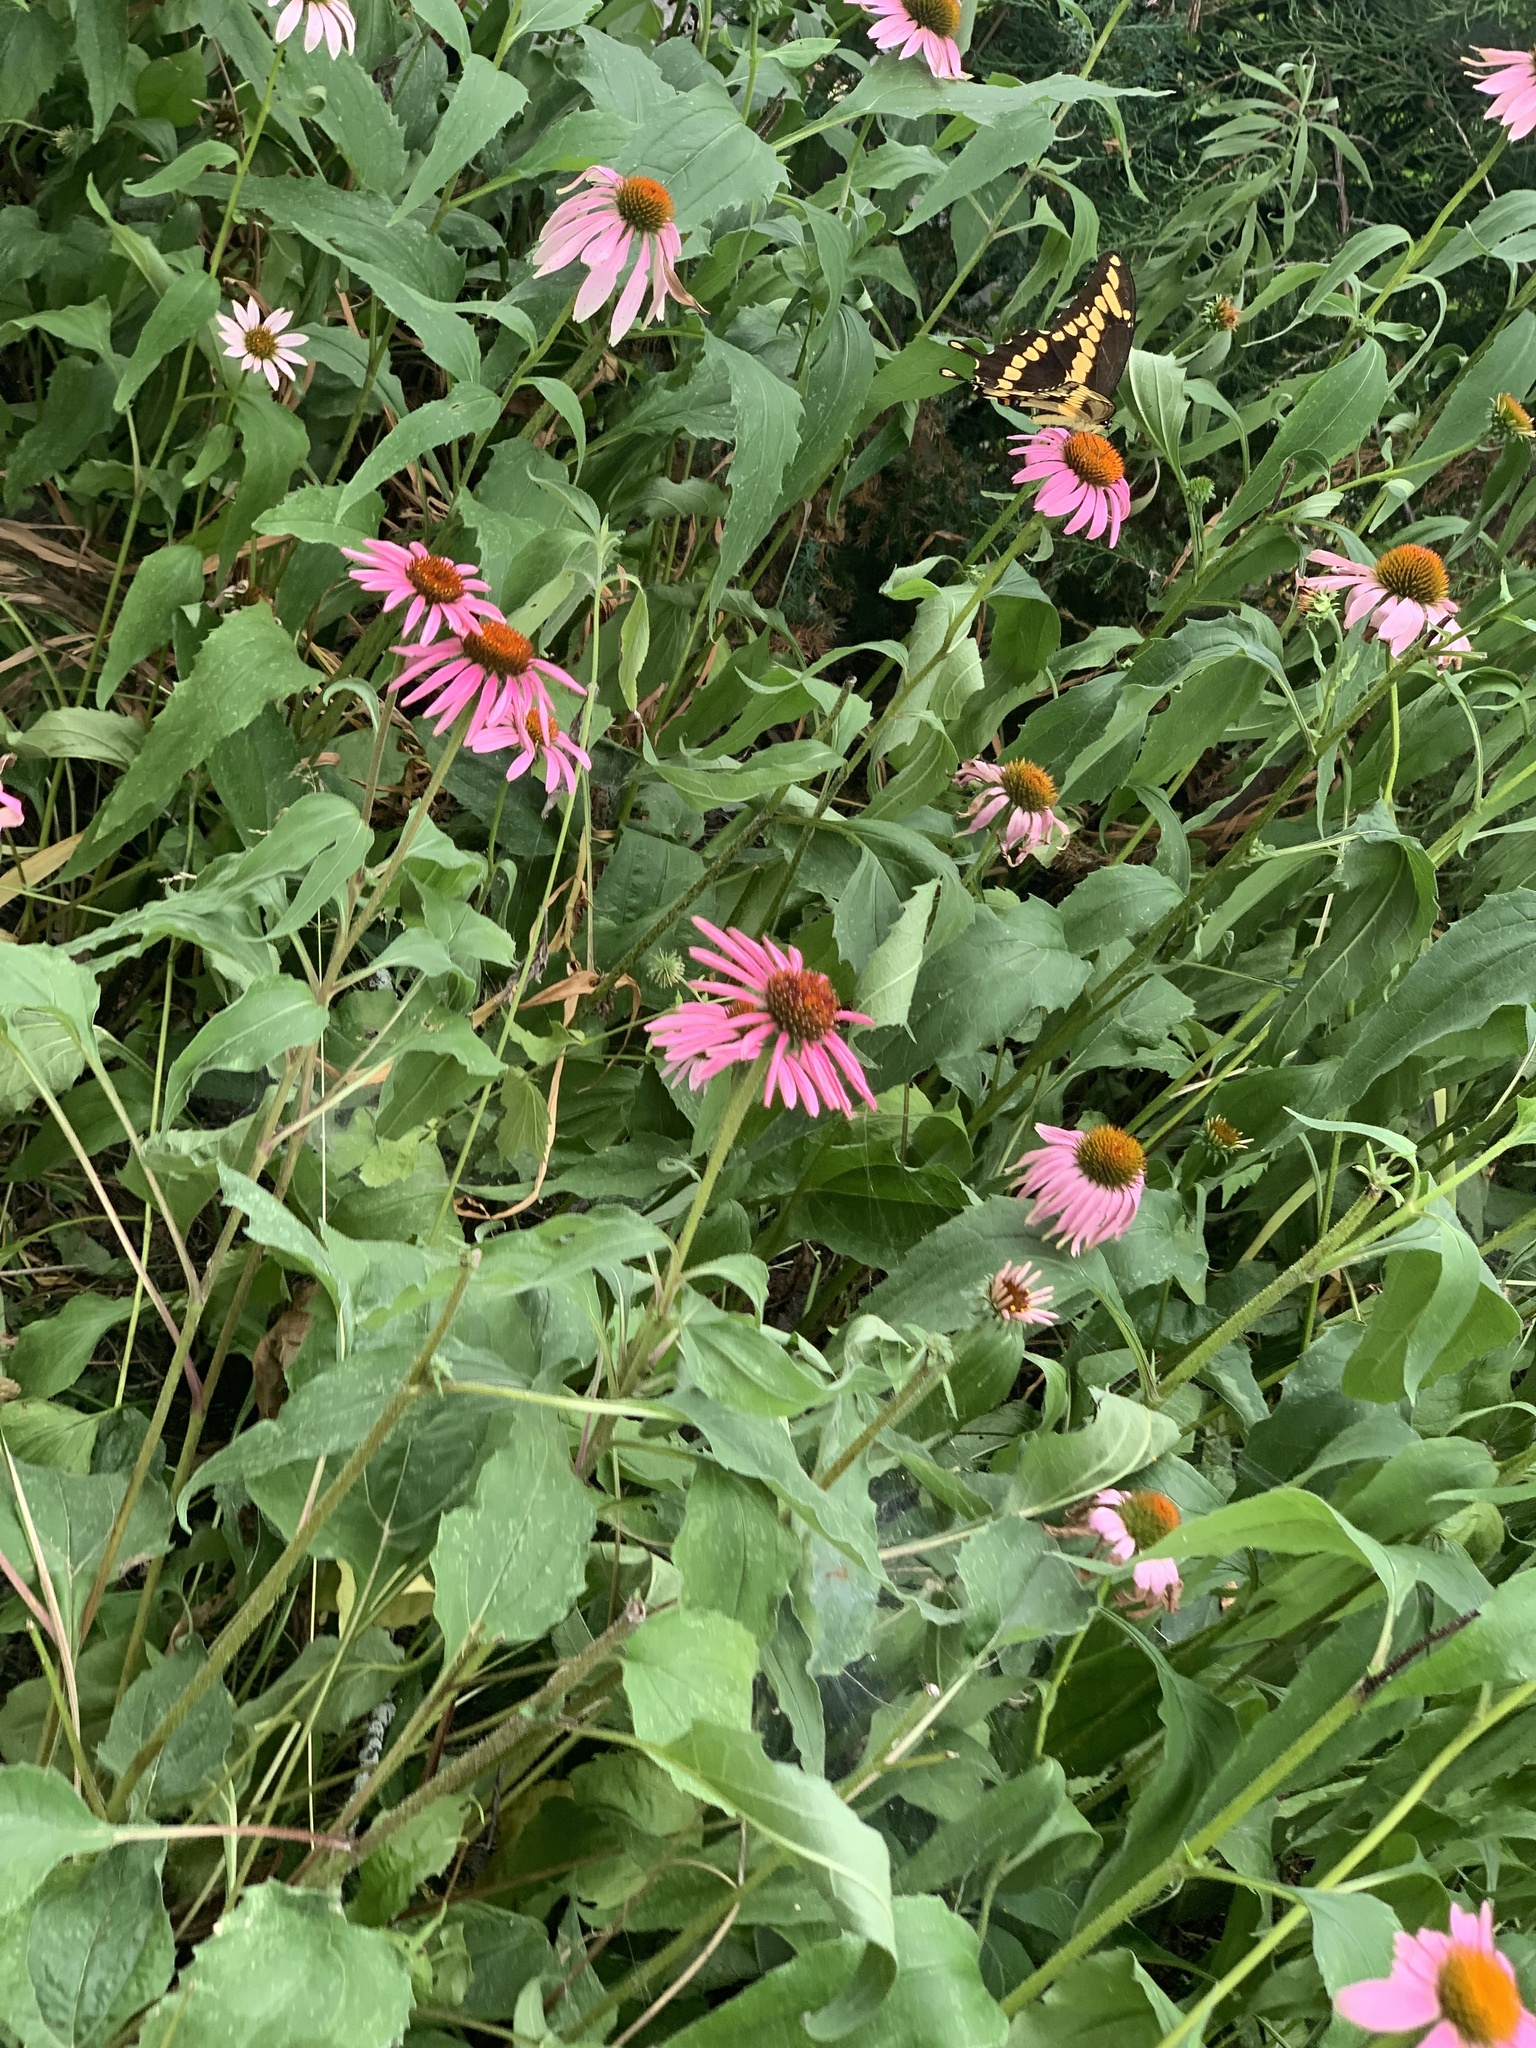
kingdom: Animalia
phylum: Arthropoda
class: Insecta
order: Lepidoptera
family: Papilionidae
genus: Papilio
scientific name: Papilio cresphontes
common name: Giant swallowtail
